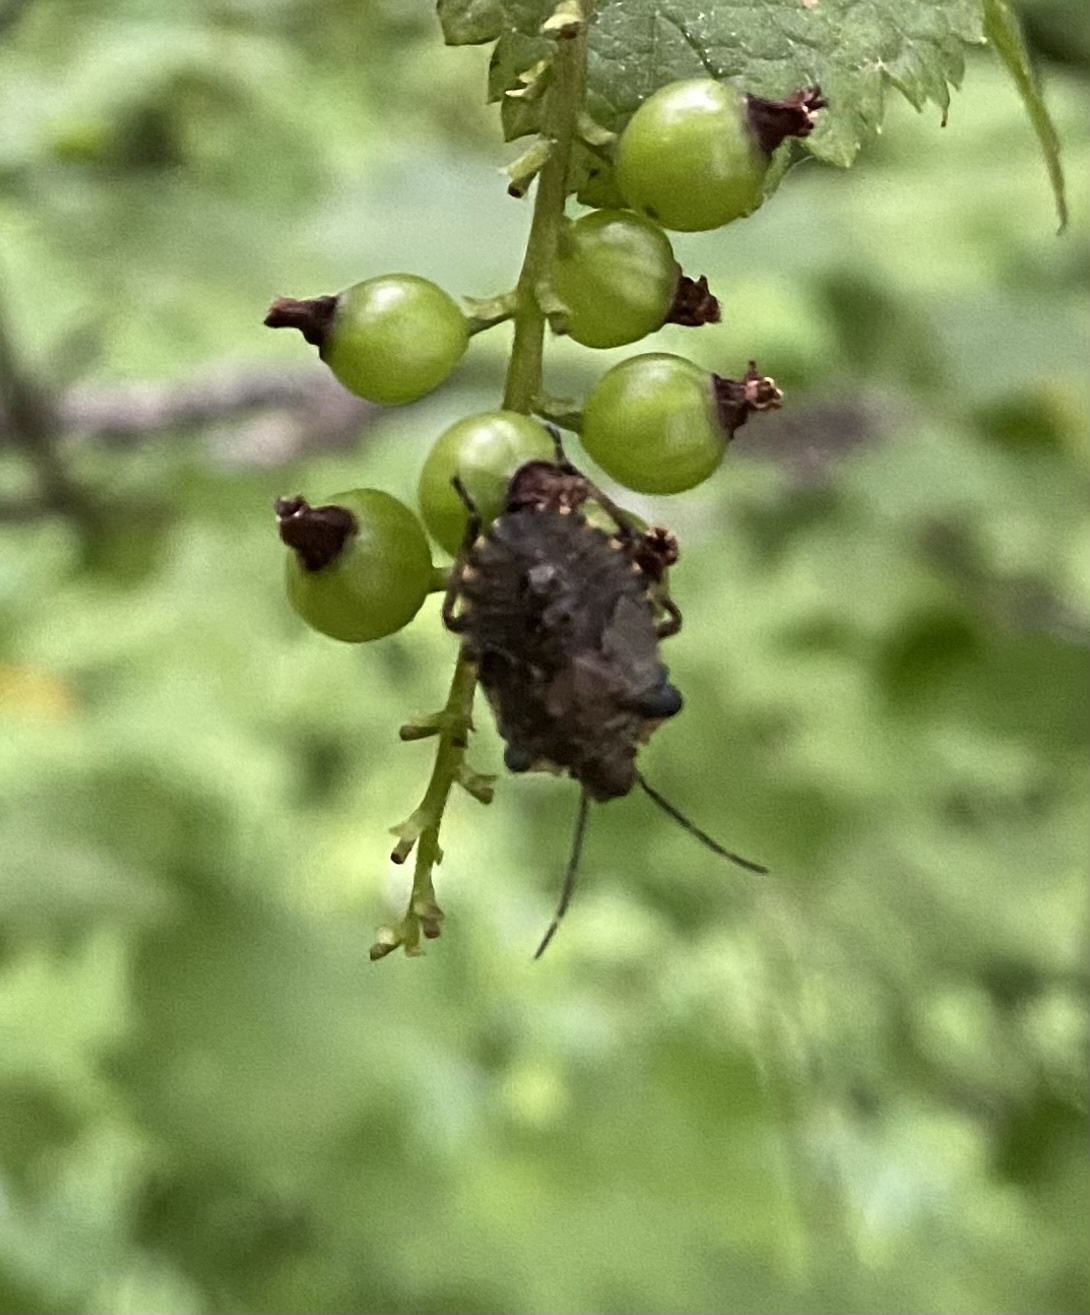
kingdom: Animalia
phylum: Arthropoda
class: Insecta
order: Hemiptera
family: Pentatomidae
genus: Pentatoma
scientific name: Pentatoma rufipes
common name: Forest bug
